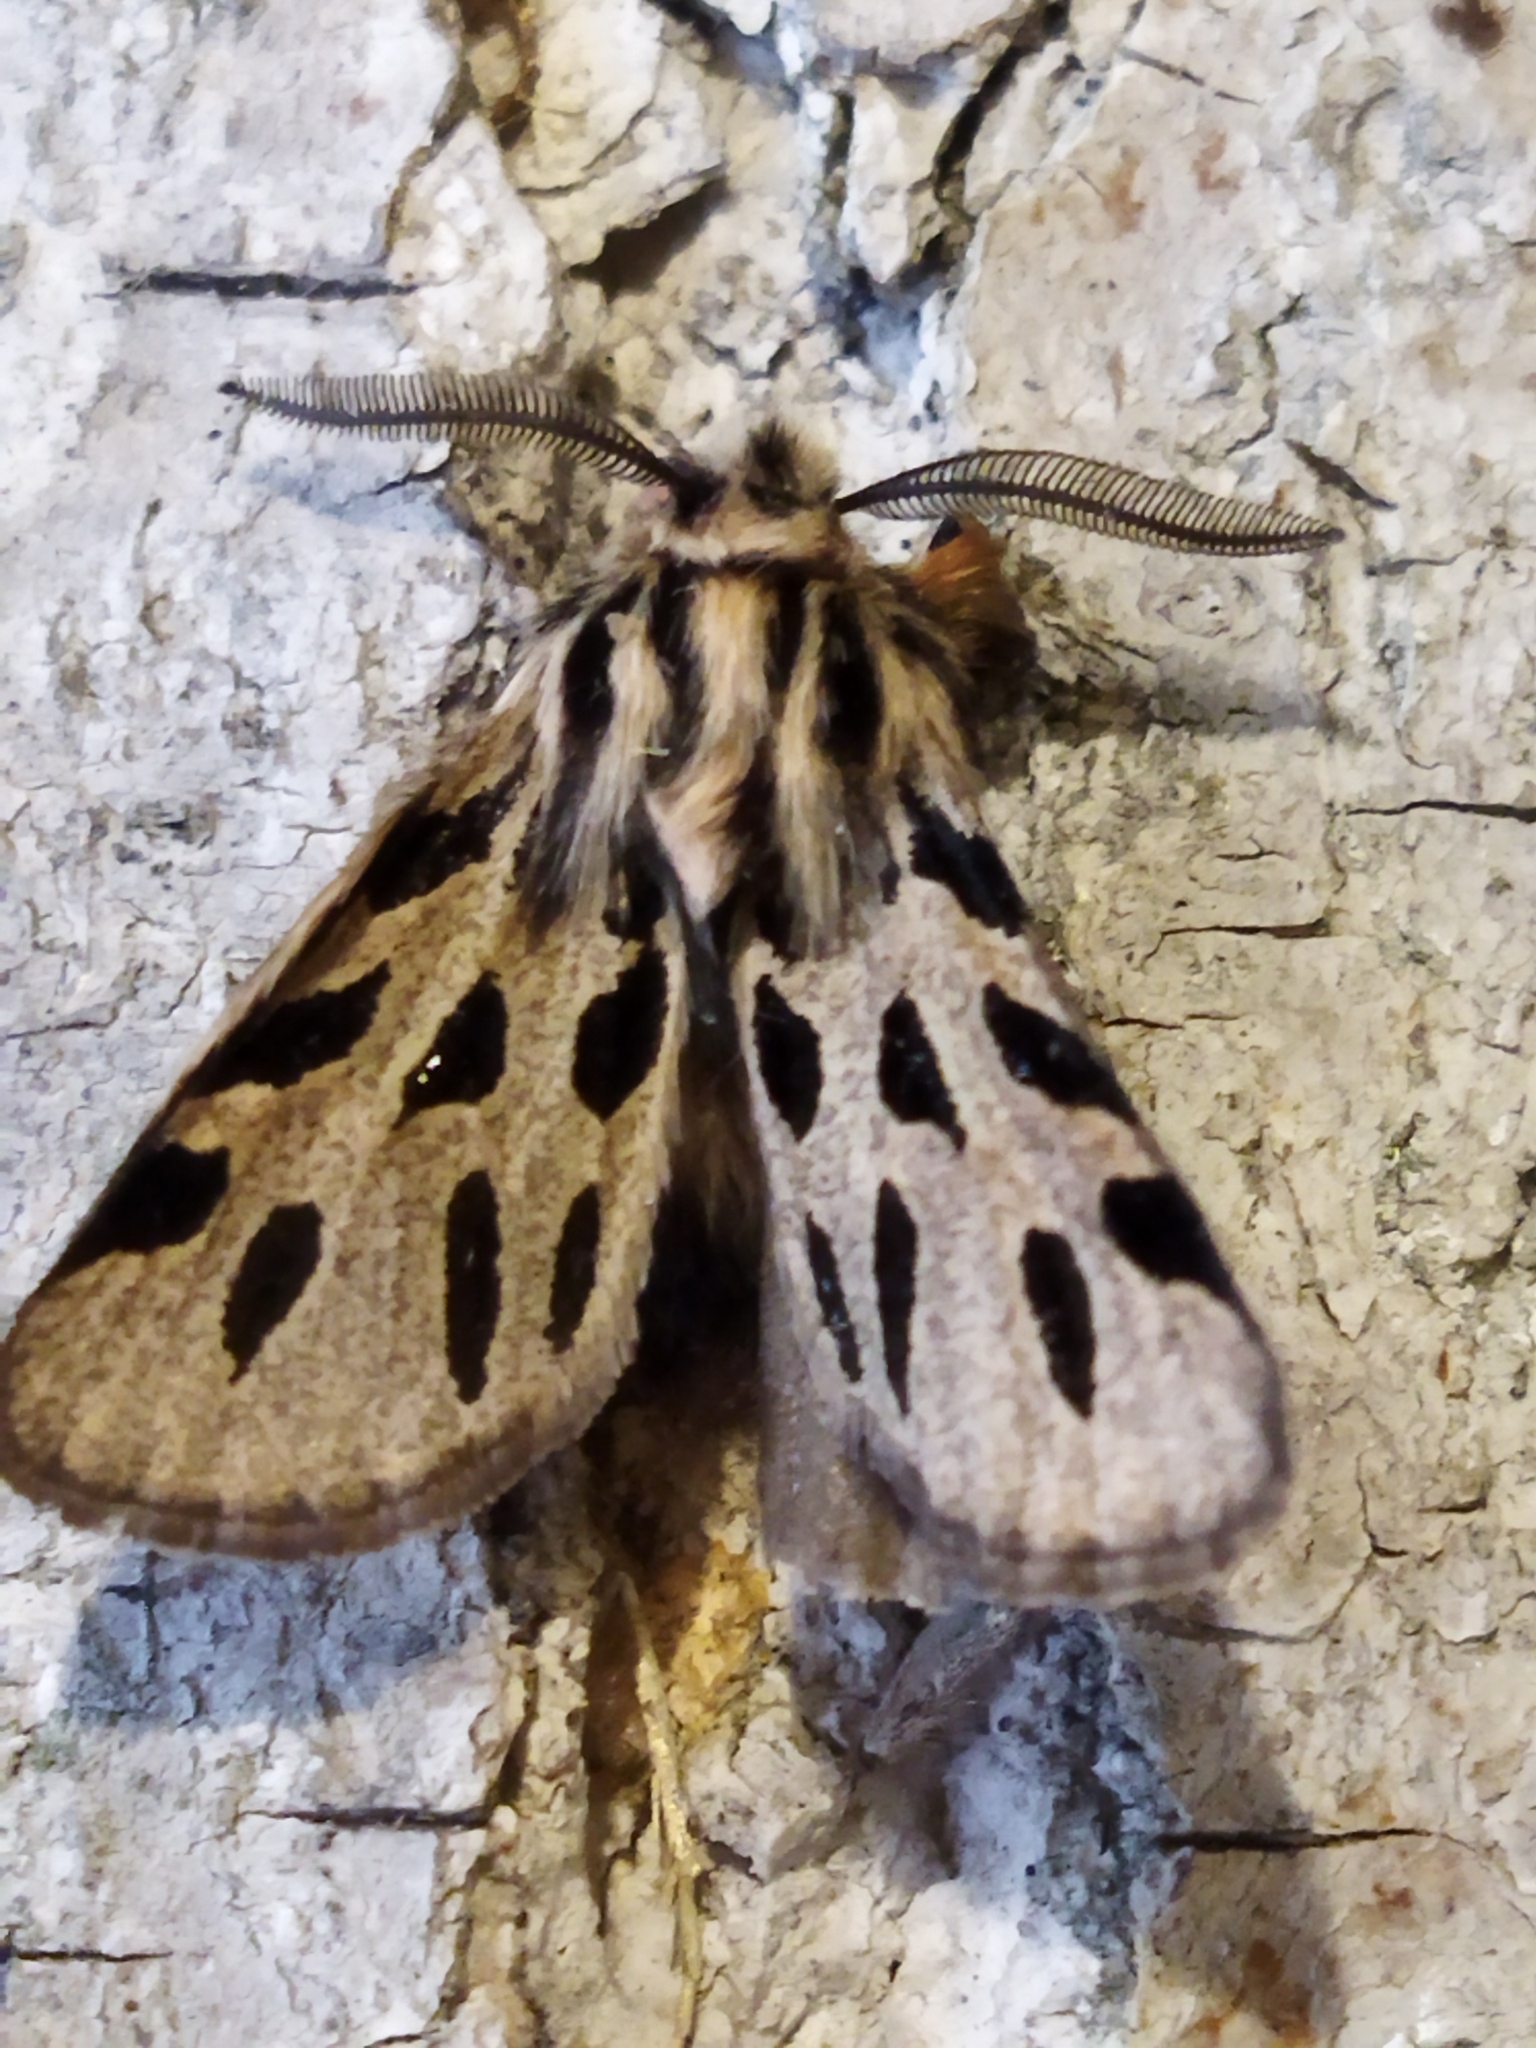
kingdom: Animalia
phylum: Arthropoda
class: Insecta
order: Lepidoptera
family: Erebidae
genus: Ocnogyna
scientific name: Ocnogyna parasita
